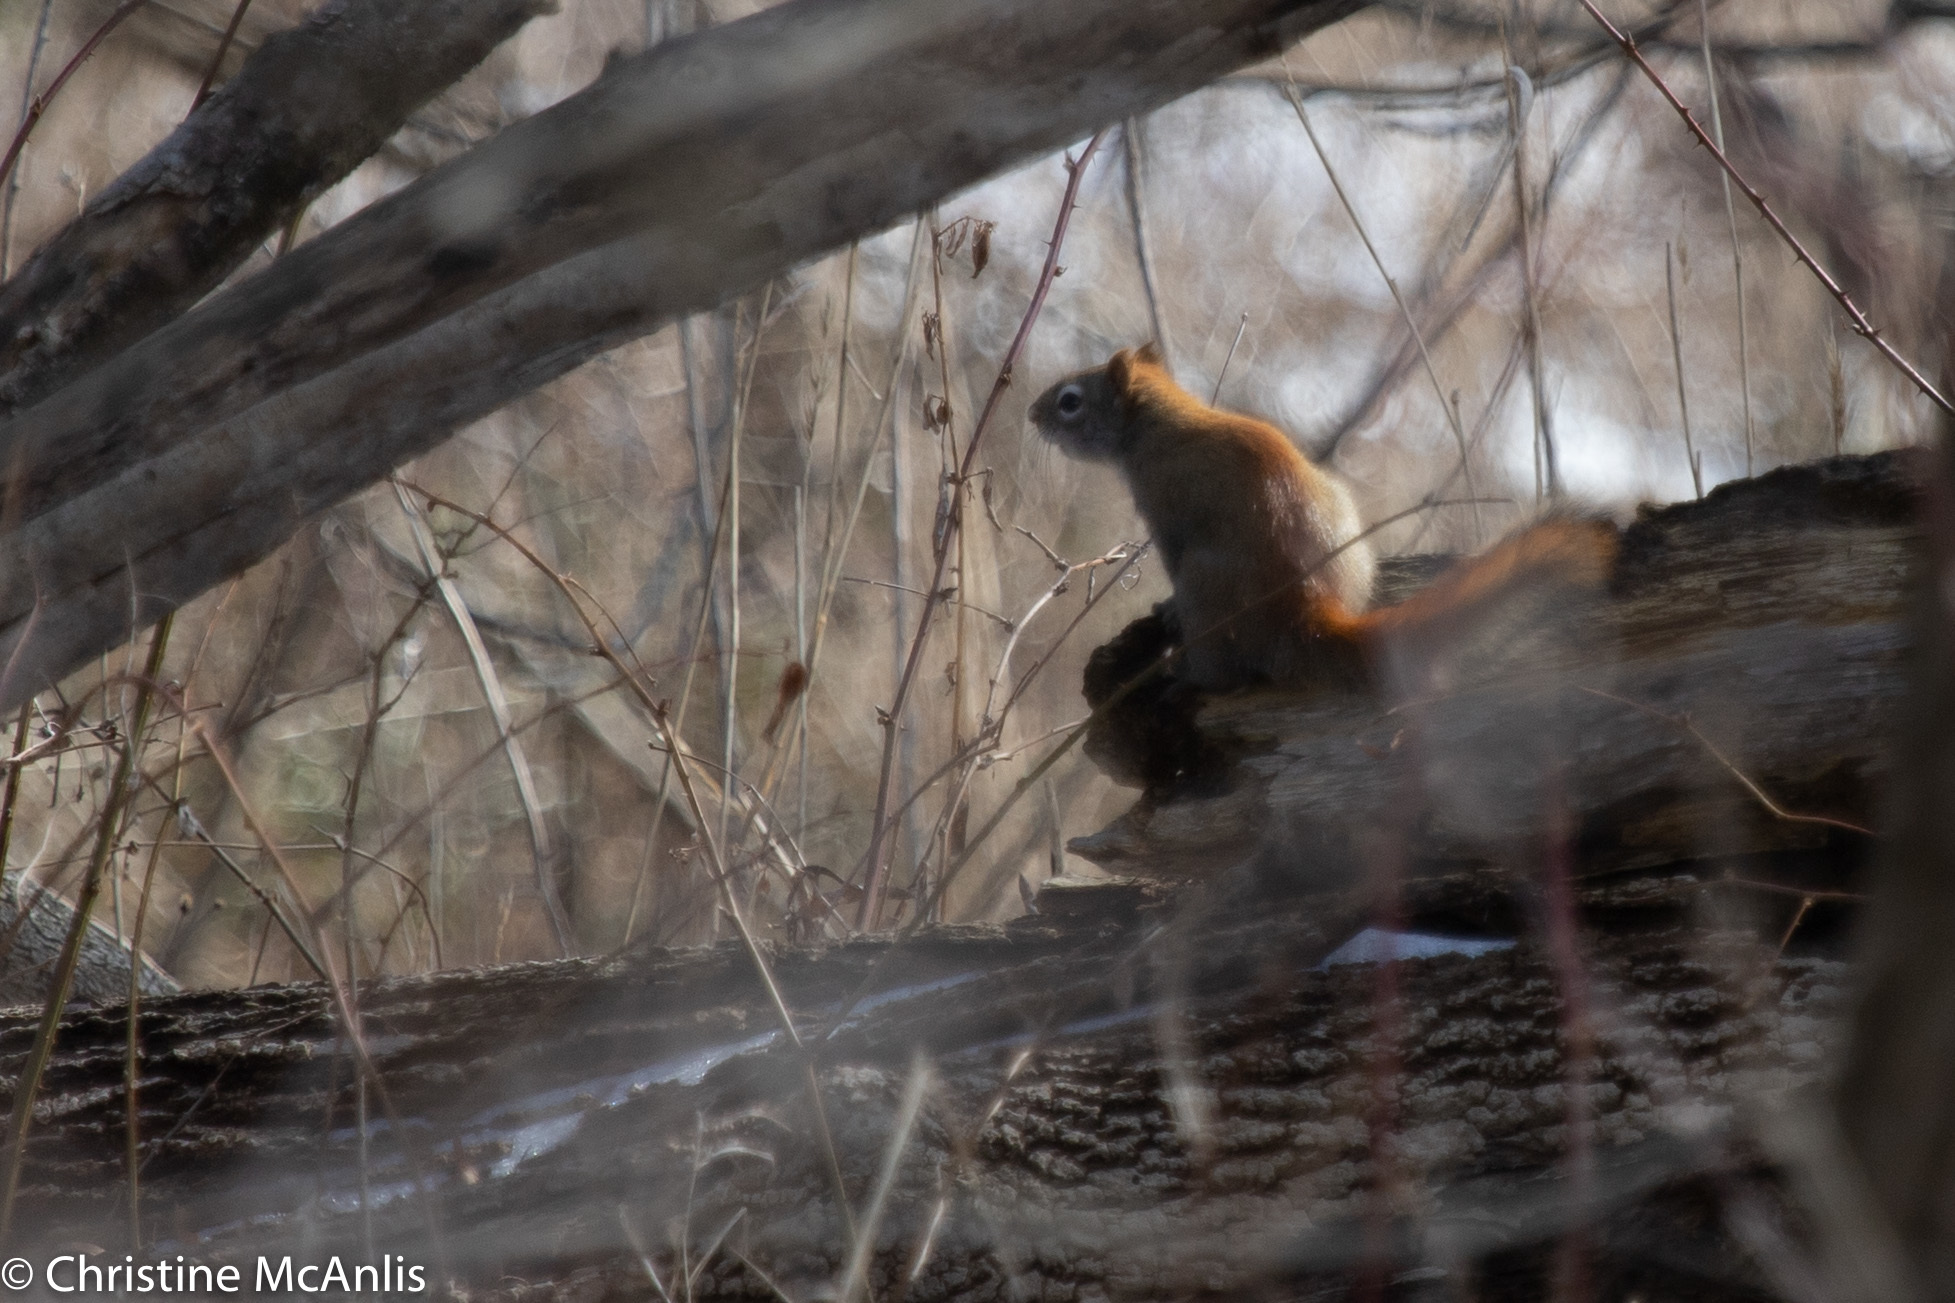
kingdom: Animalia
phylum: Chordata
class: Mammalia
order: Rodentia
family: Sciuridae
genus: Tamiasciurus
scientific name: Tamiasciurus hudsonicus
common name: Red squirrel
